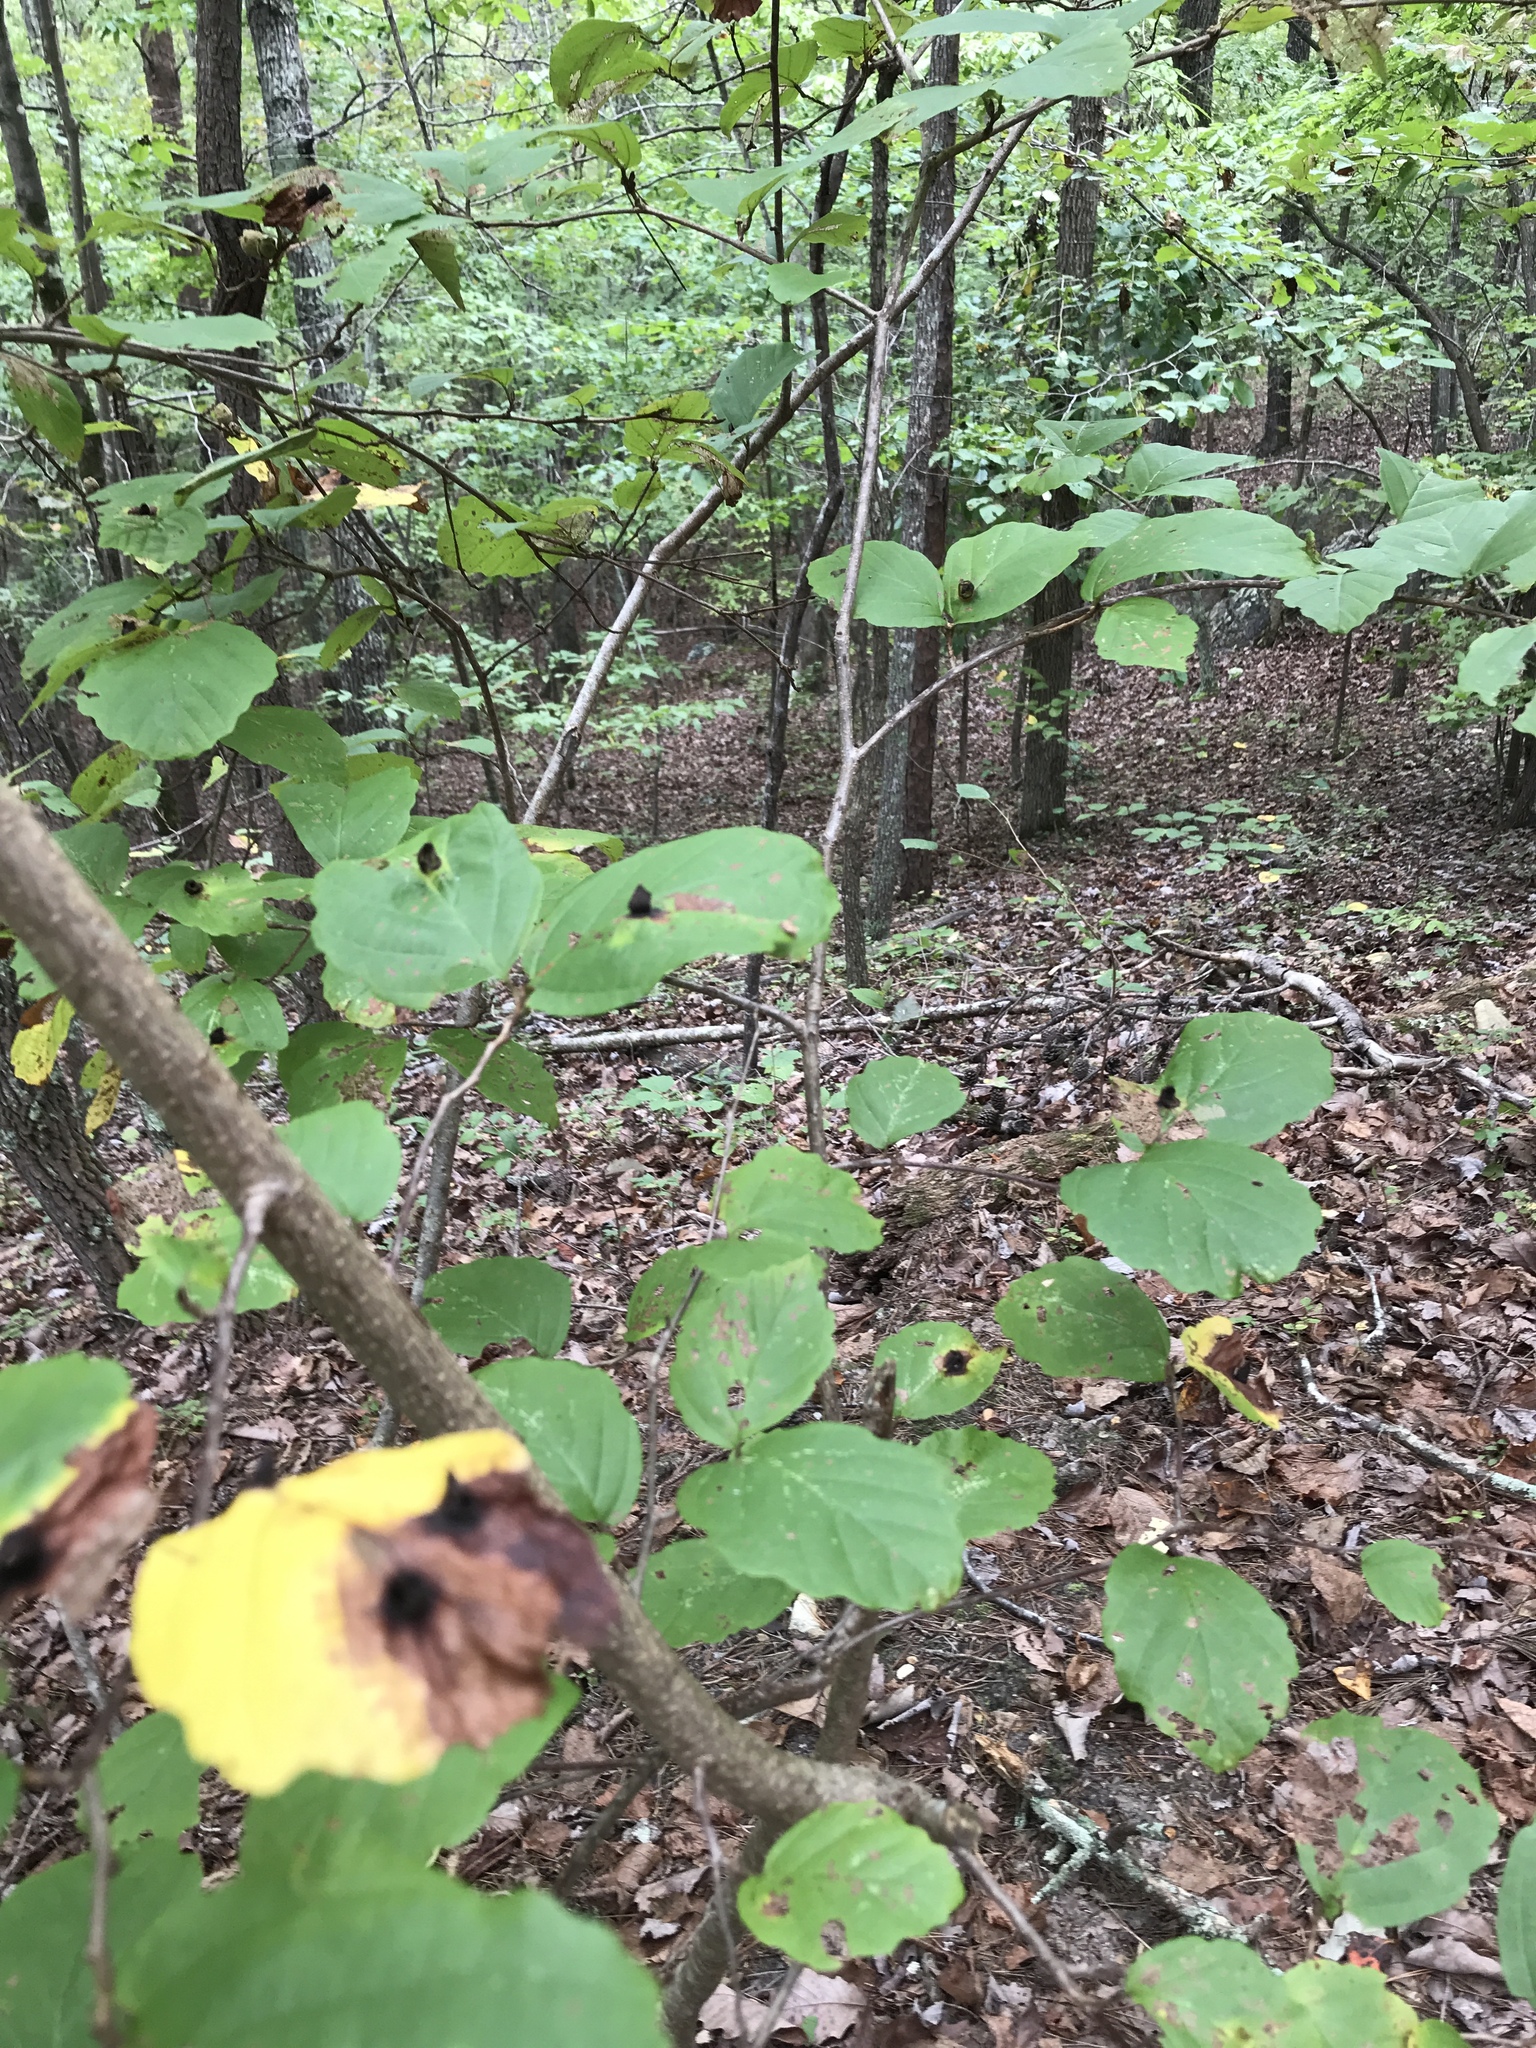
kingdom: Plantae
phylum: Tracheophyta
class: Magnoliopsida
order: Saxifragales
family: Hamamelidaceae
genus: Hamamelis
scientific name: Hamamelis virginiana
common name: Witch-hazel
